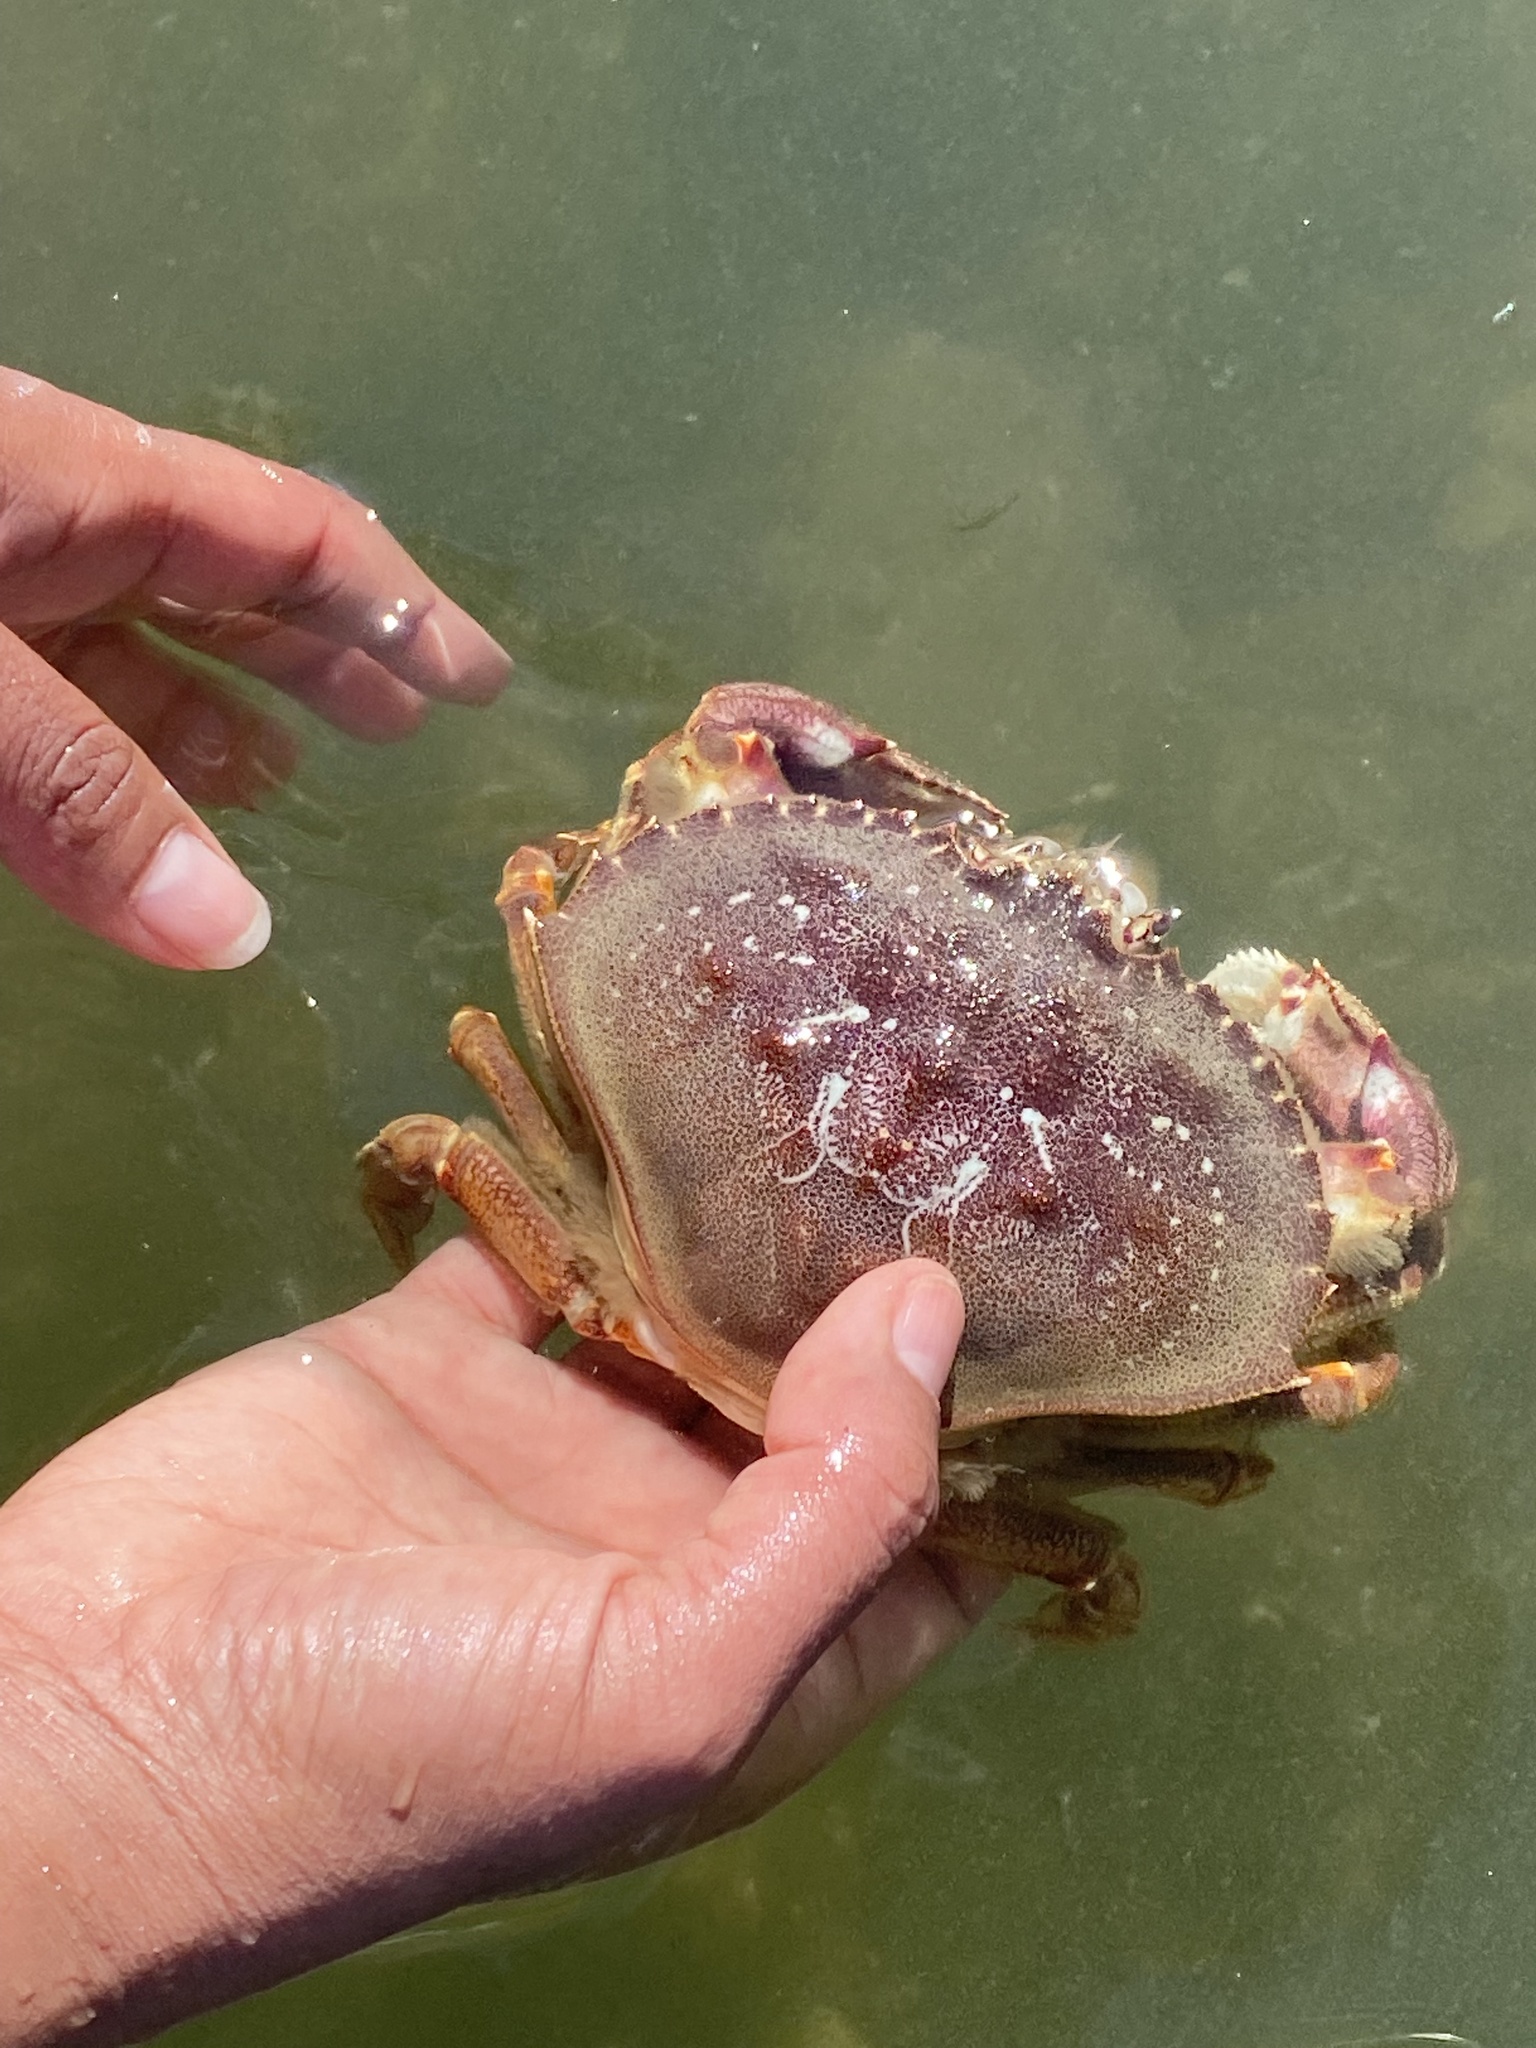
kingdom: Animalia
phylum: Arthropoda
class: Malacostraca
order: Decapoda
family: Cancridae
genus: Metacarcinus
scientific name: Metacarcinus magister
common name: Californian crab
